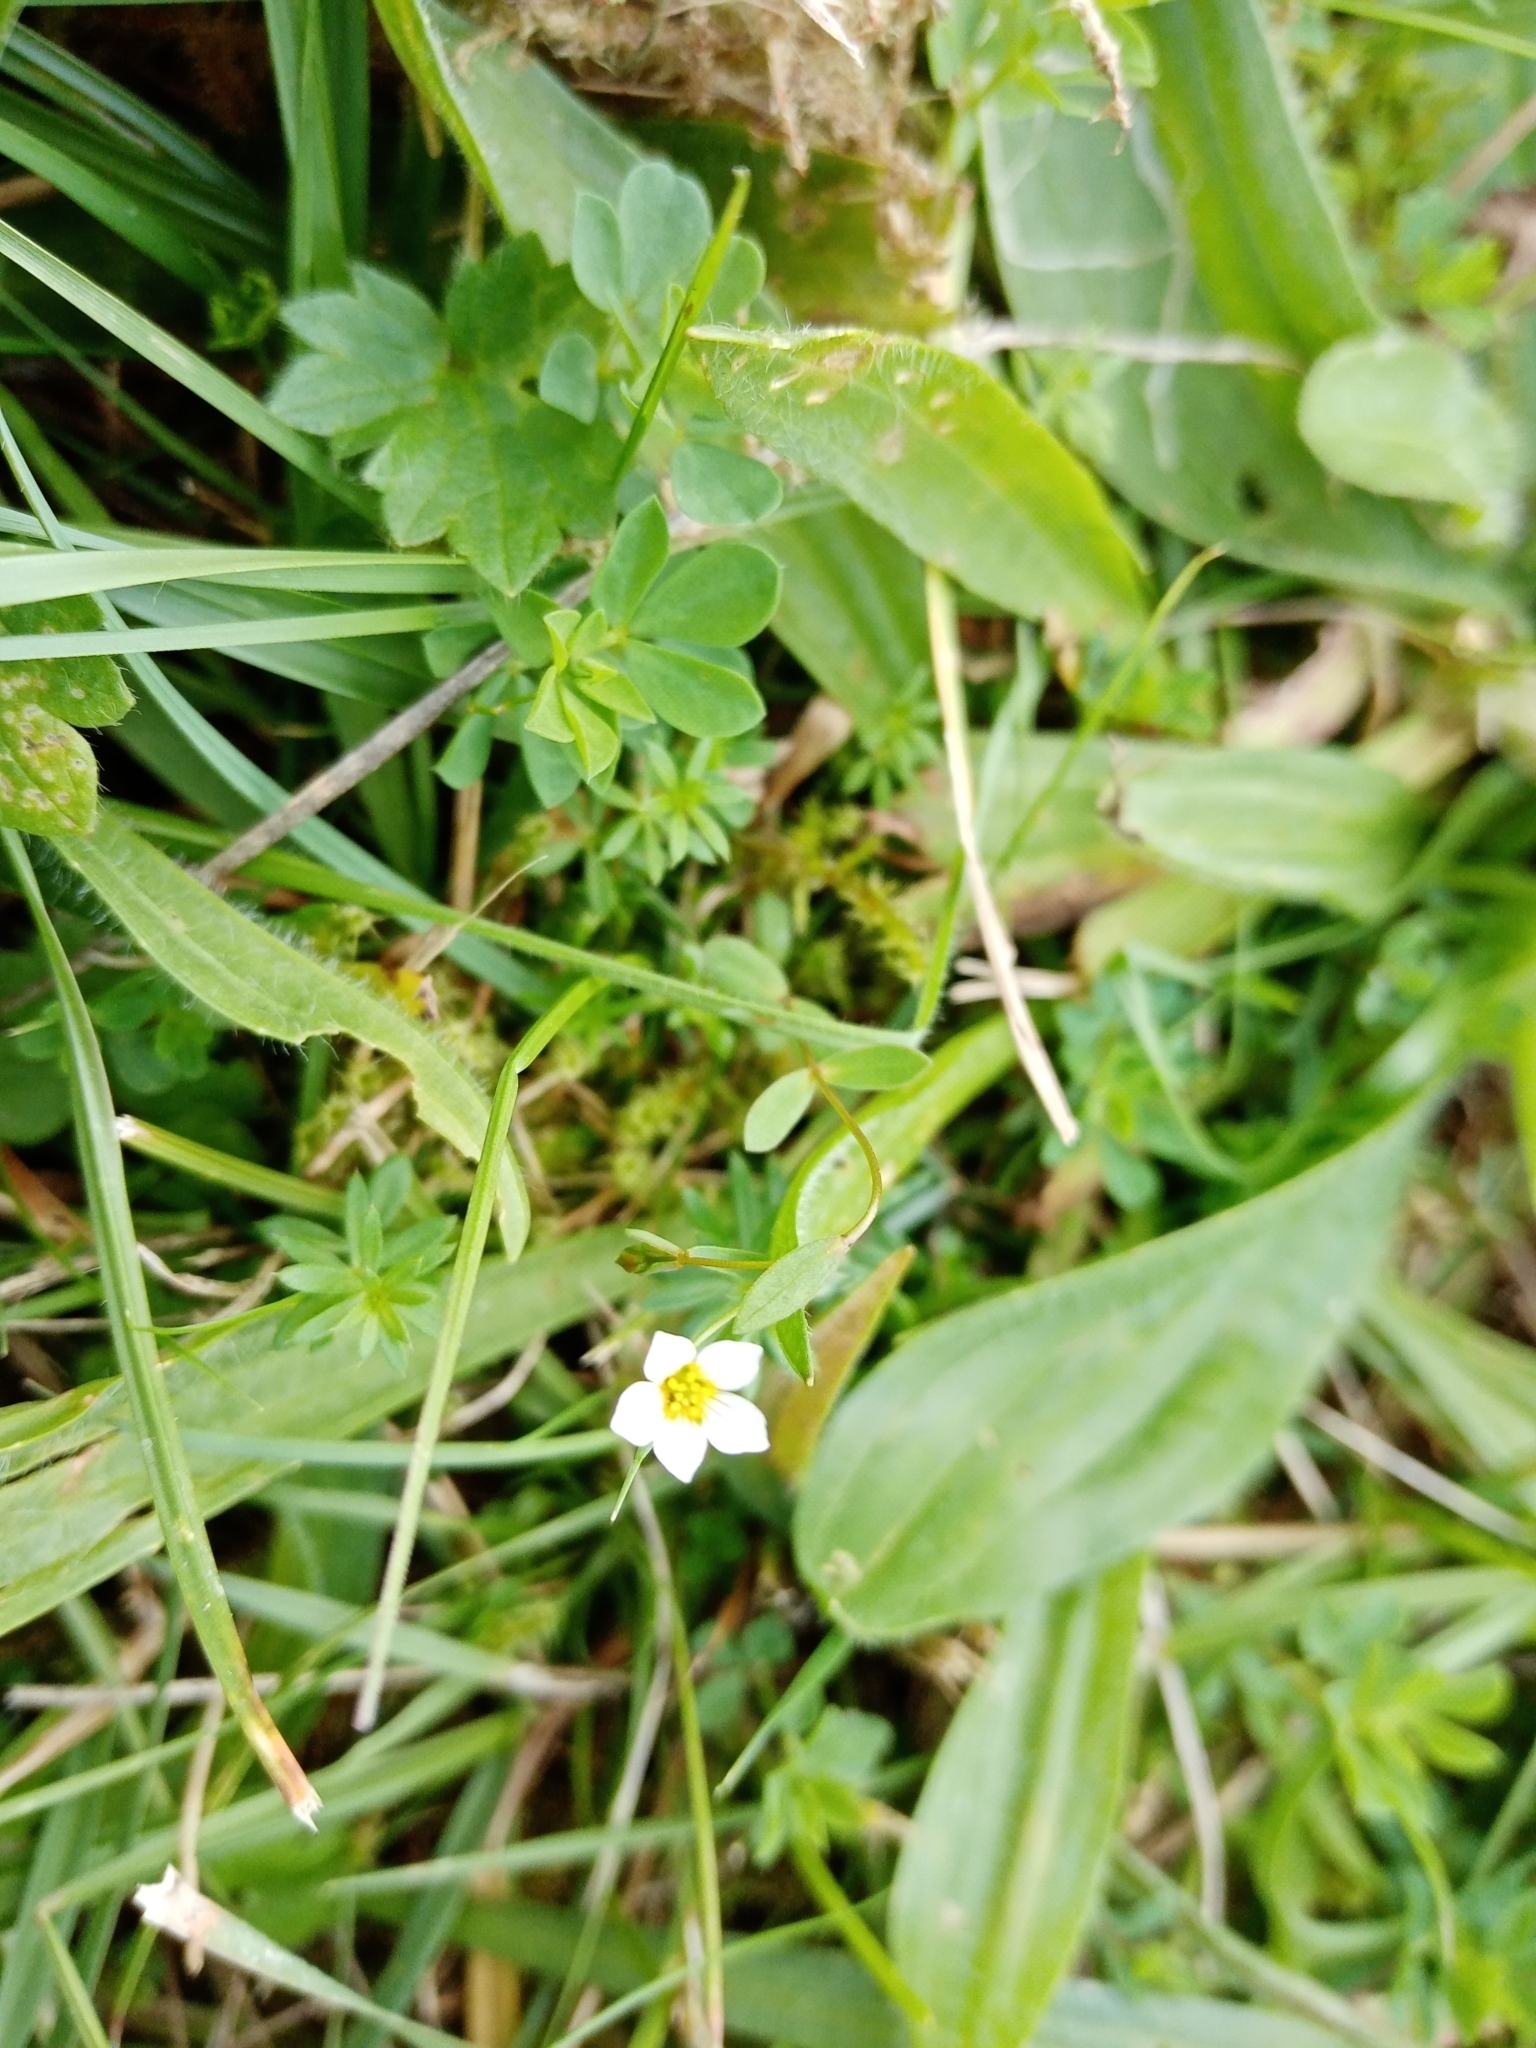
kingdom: Plantae
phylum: Tracheophyta
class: Magnoliopsida
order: Malpighiales
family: Linaceae
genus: Linum
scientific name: Linum catharticum
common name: Fairy flax
